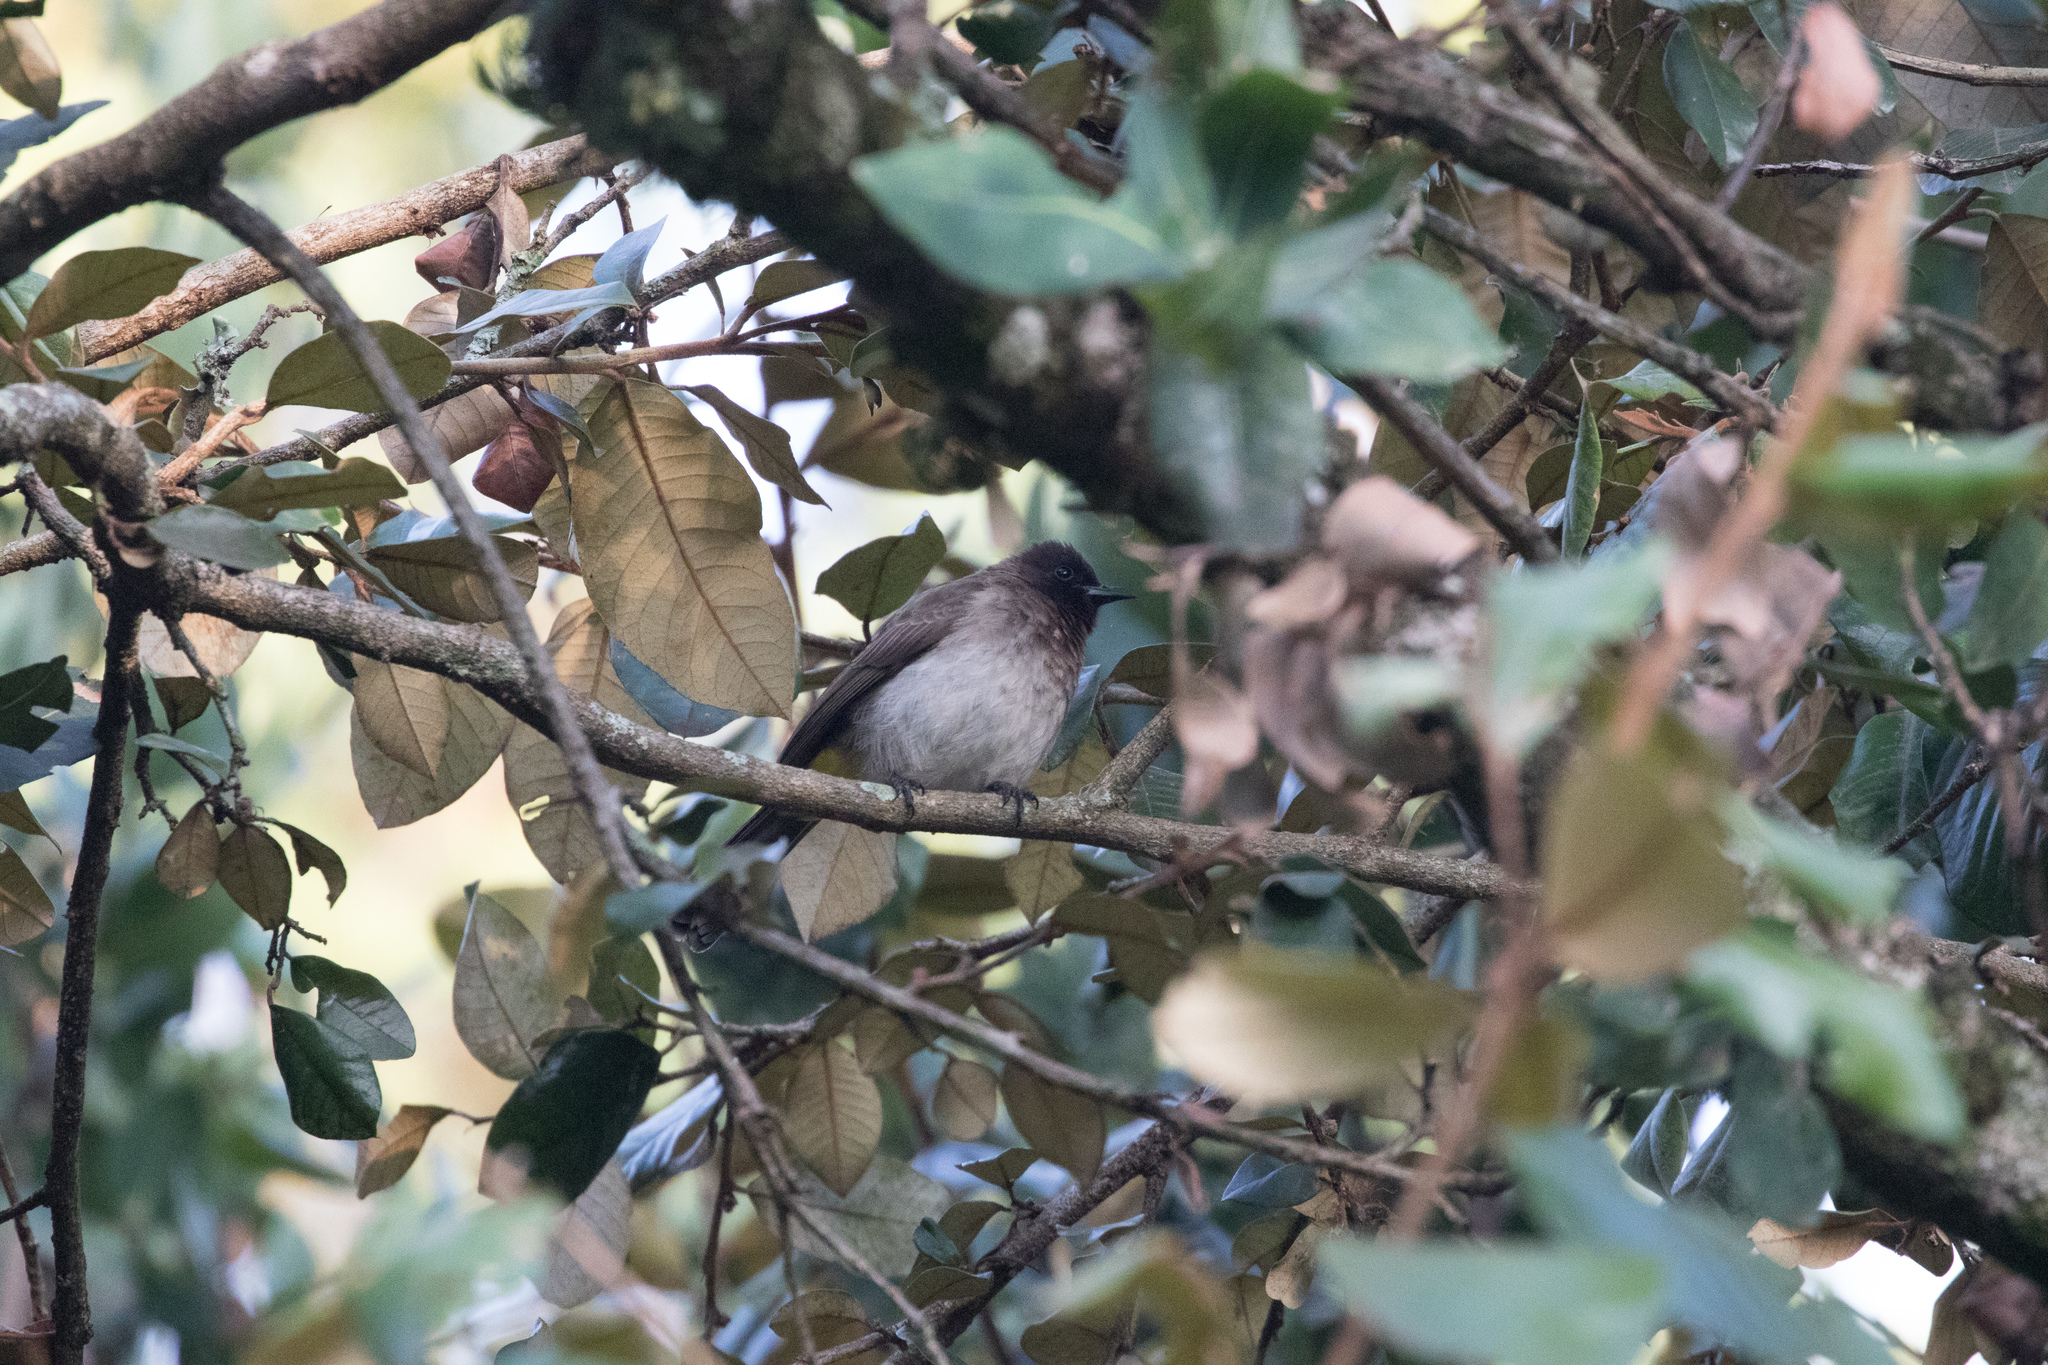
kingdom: Animalia
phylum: Chordata
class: Aves
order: Passeriformes
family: Pycnonotidae
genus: Pycnonotus
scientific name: Pycnonotus barbatus
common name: Common bulbul
